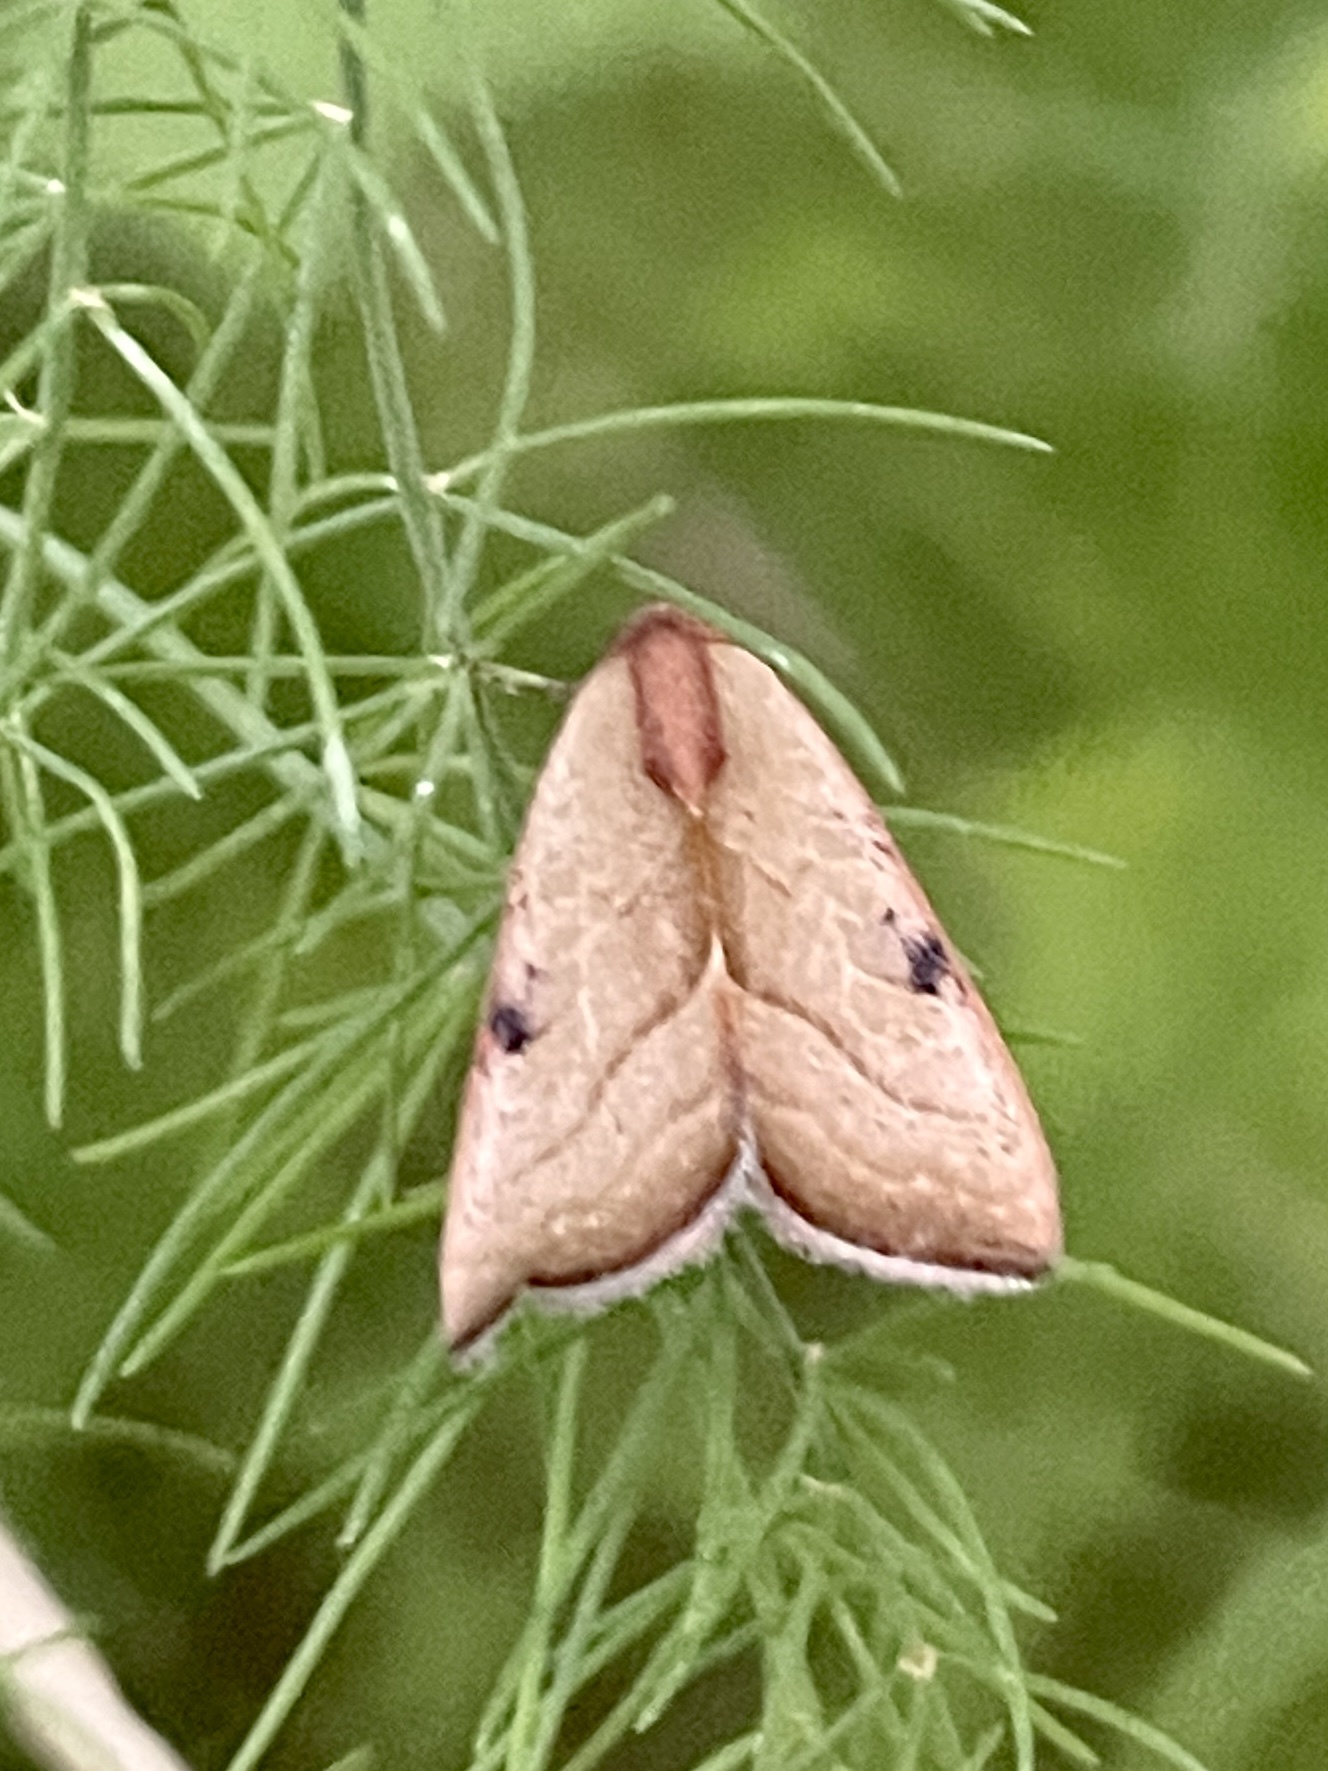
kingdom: Animalia
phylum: Arthropoda
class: Insecta
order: Lepidoptera
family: Noctuidae
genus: Galgula
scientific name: Galgula partita
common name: Wedgeling
